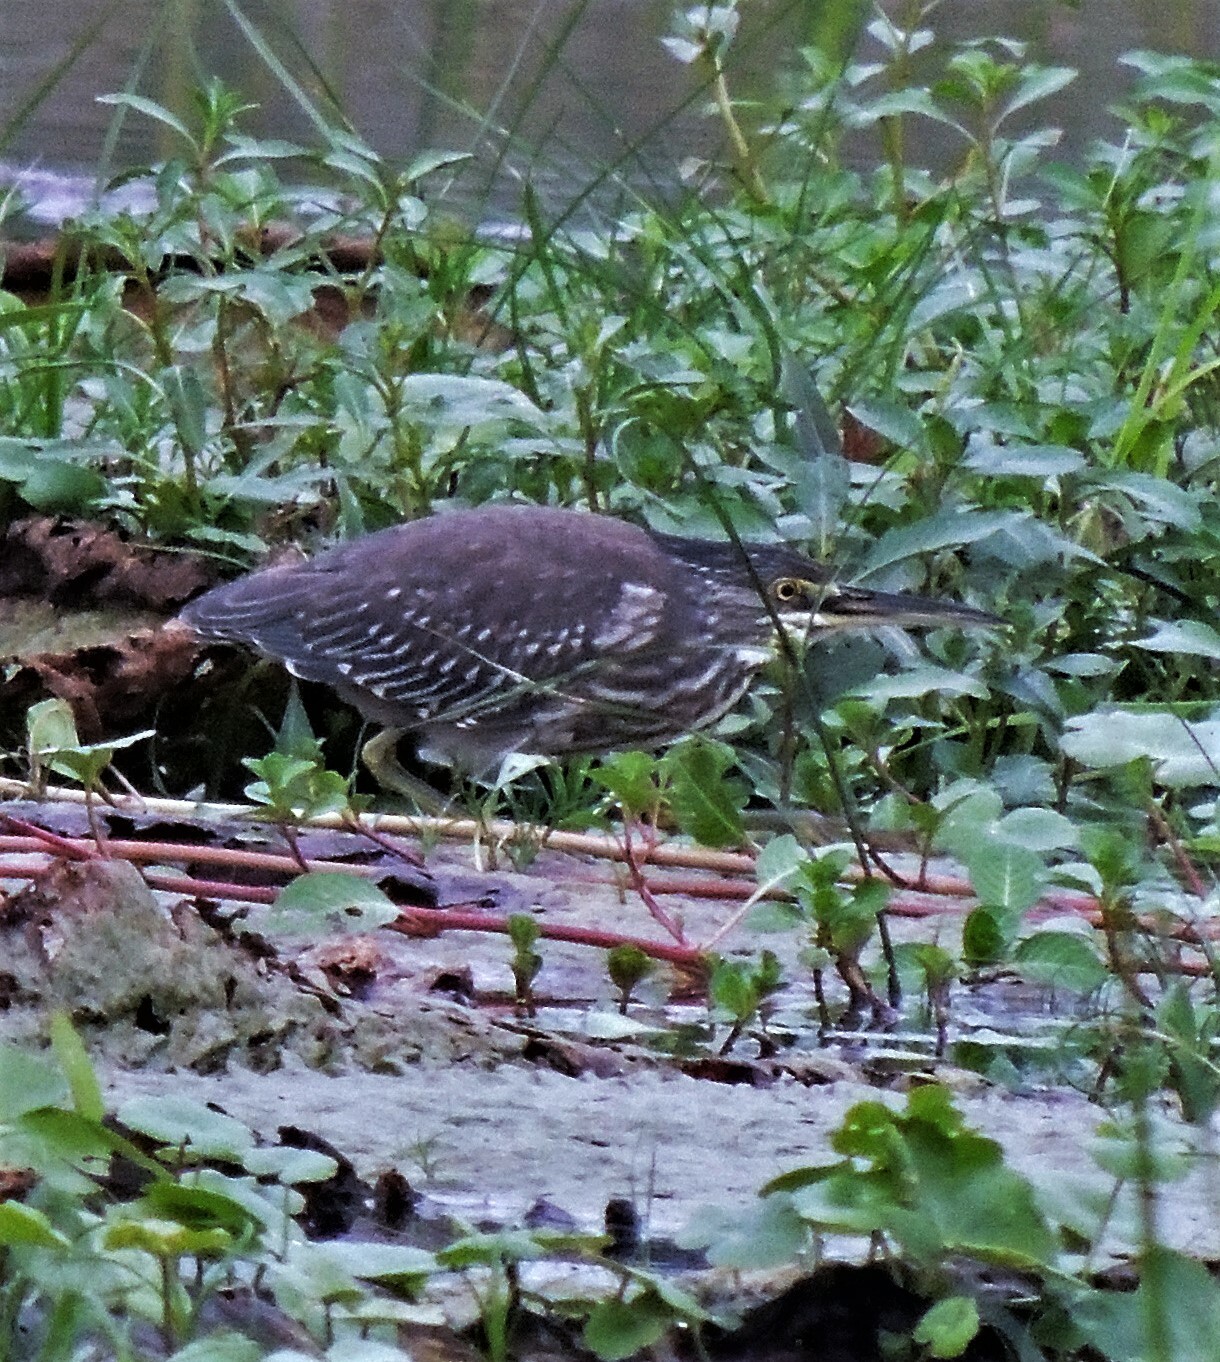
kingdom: Animalia
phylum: Chordata
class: Aves
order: Pelecaniformes
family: Ardeidae
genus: Butorides
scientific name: Butorides striata
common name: Striated heron
